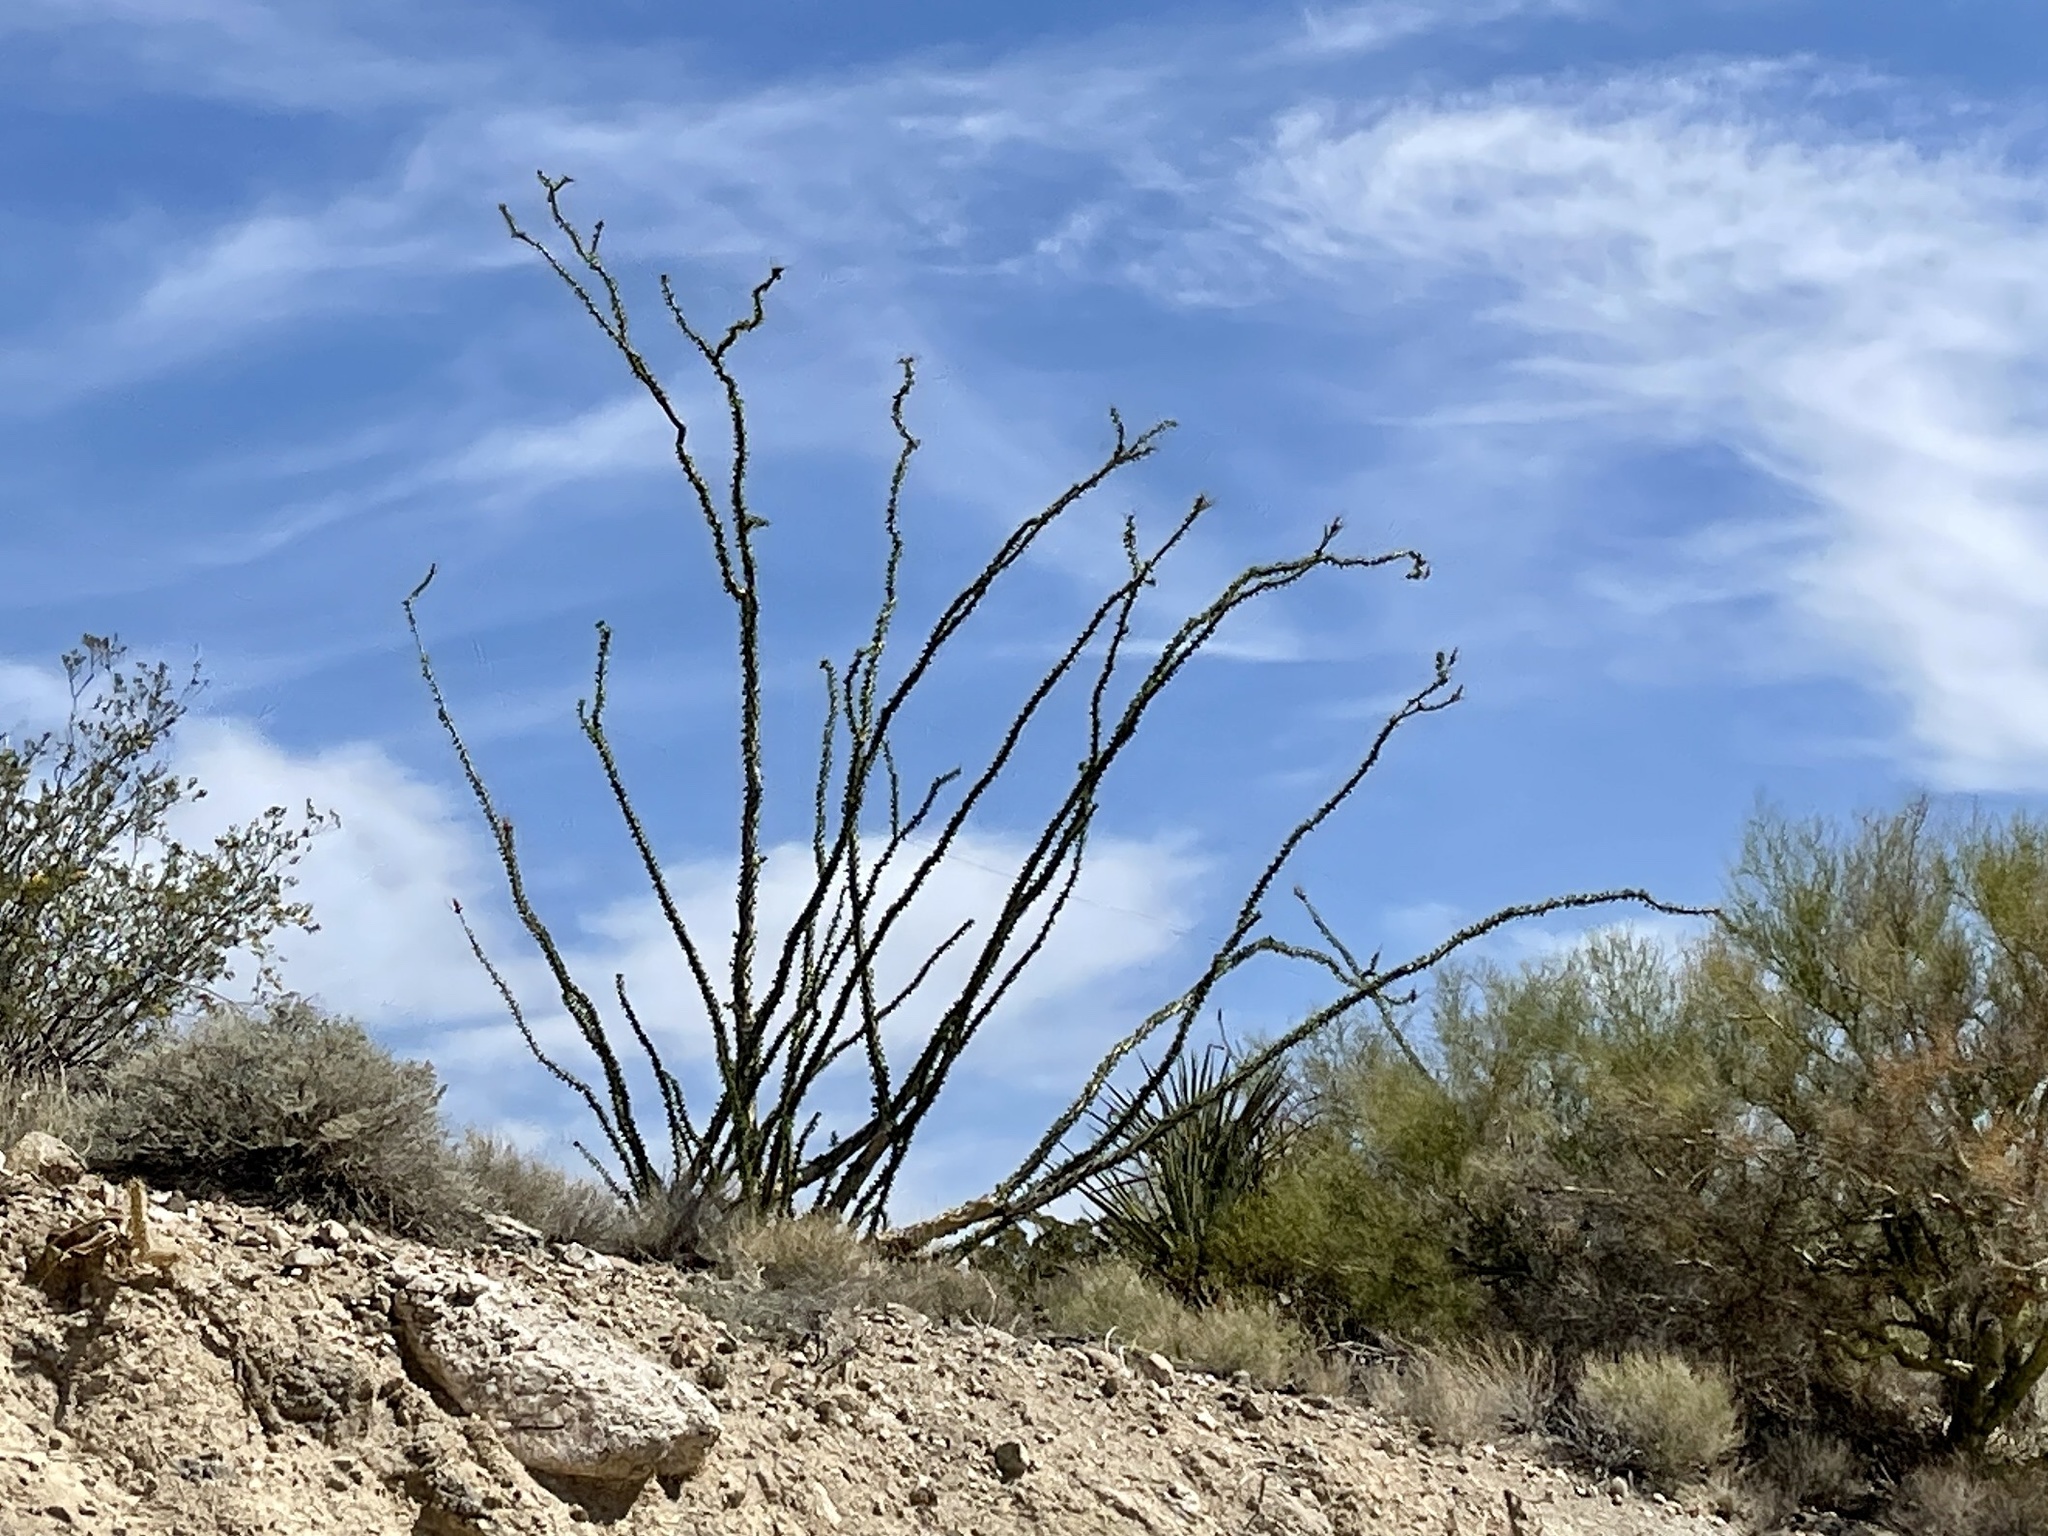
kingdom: Plantae
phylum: Tracheophyta
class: Magnoliopsida
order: Ericales
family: Fouquieriaceae
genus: Fouquieria
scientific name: Fouquieria splendens
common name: Vine-cactus
